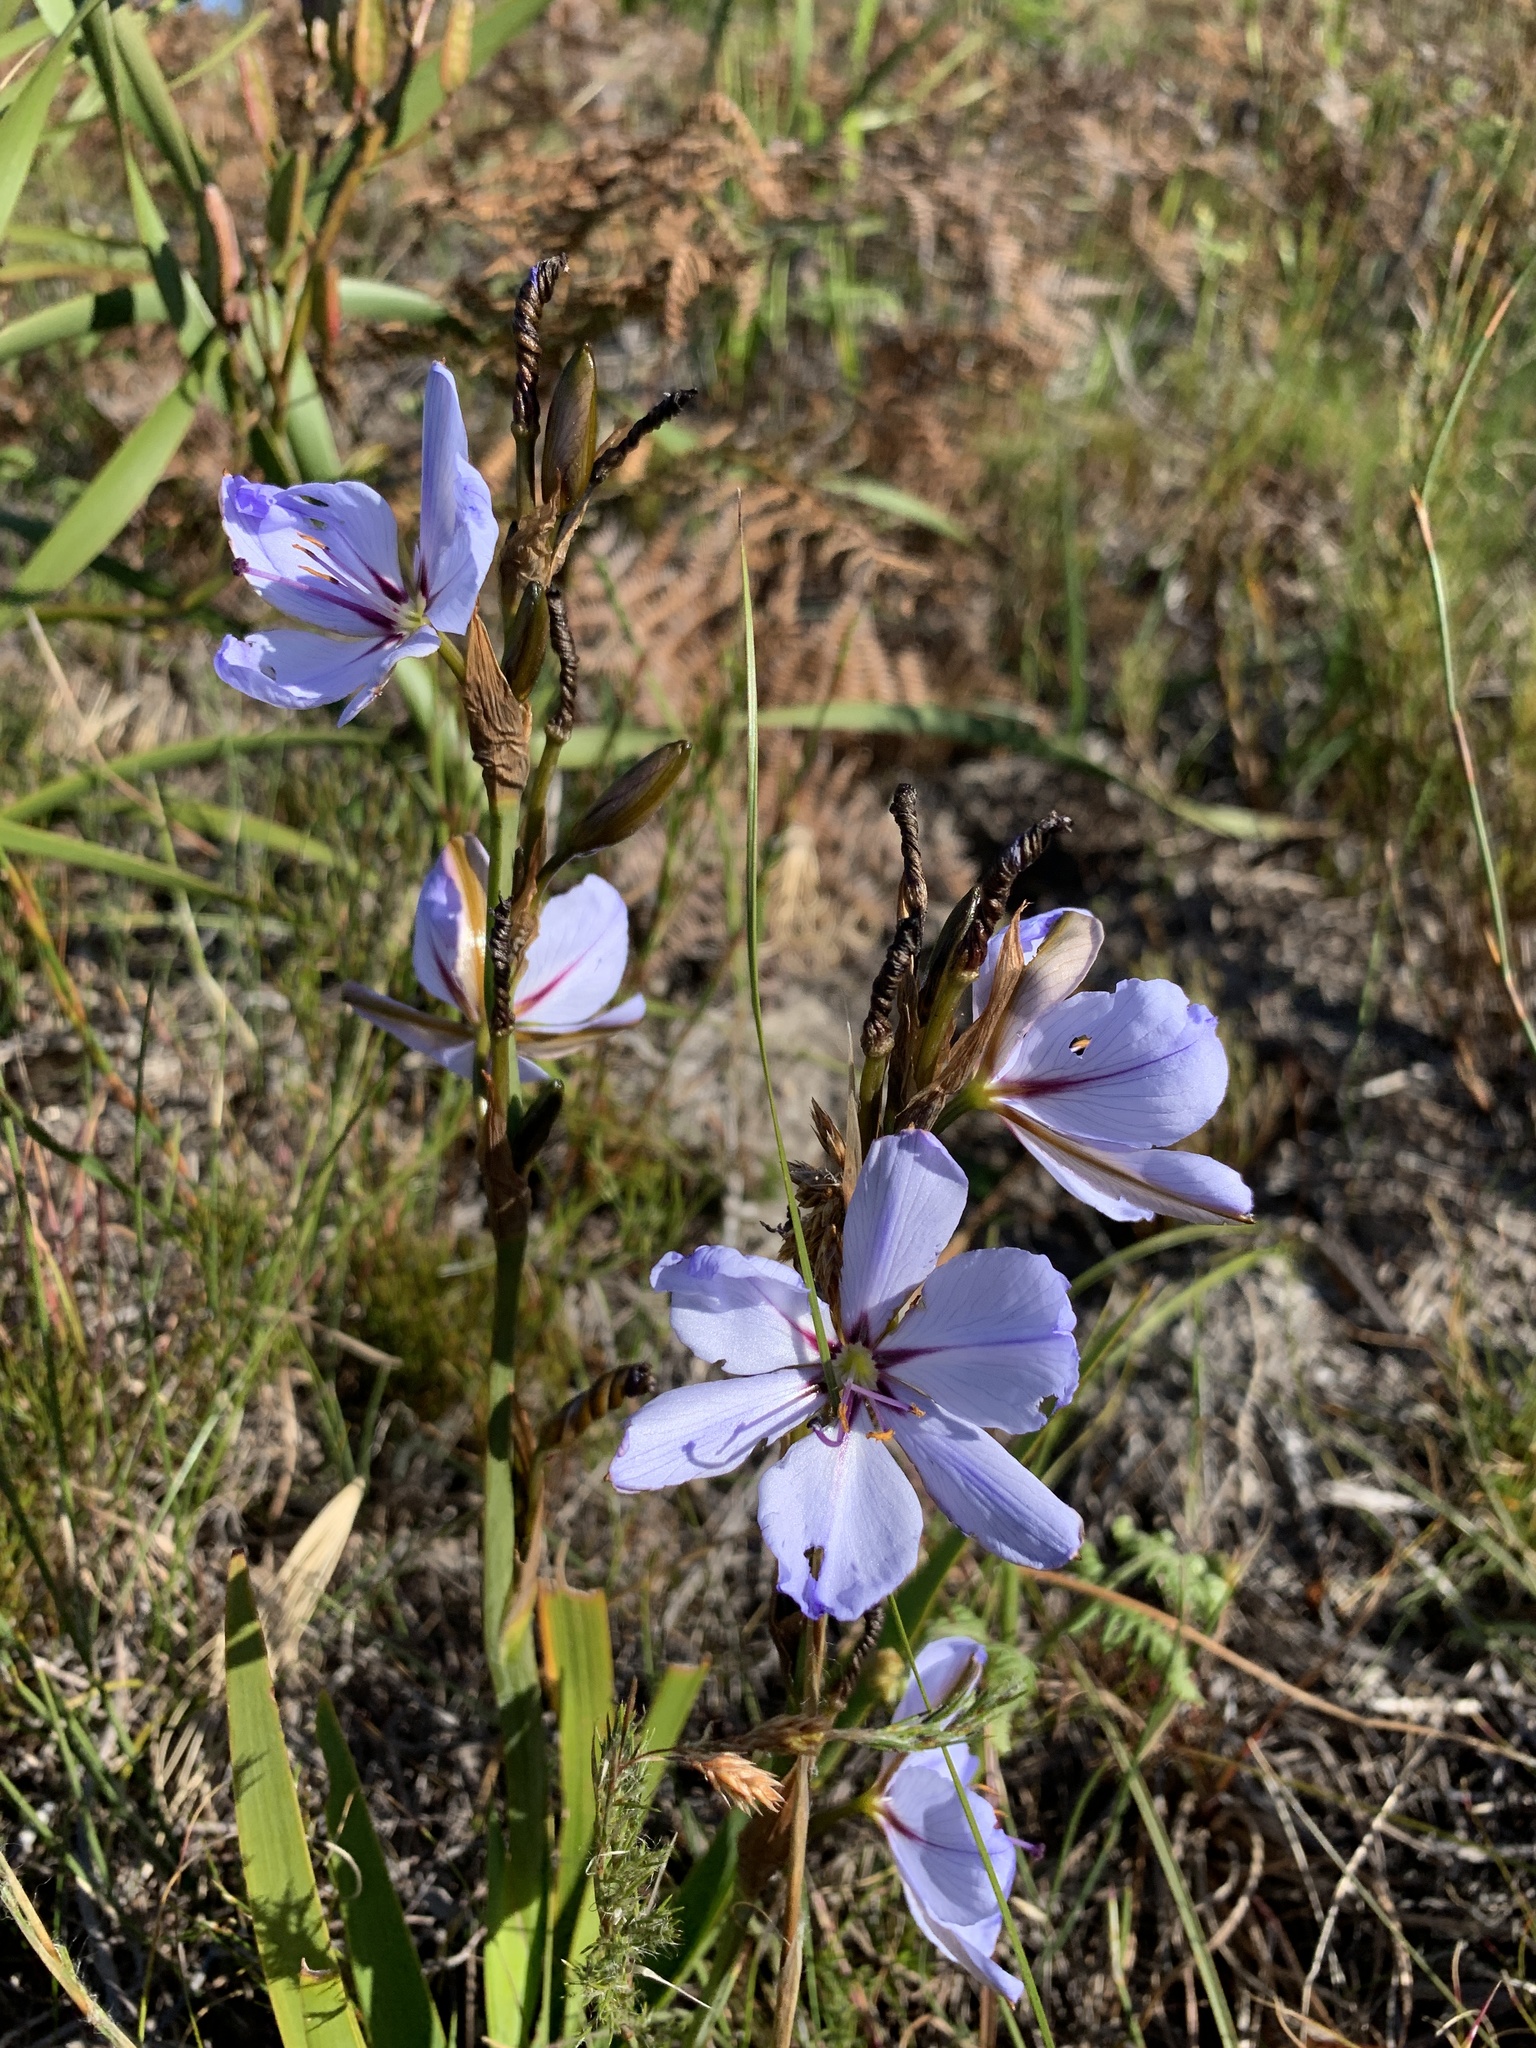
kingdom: Plantae
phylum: Tracheophyta
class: Liliopsida
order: Asparagales
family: Iridaceae
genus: Aristea
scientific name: Aristea spiralis
